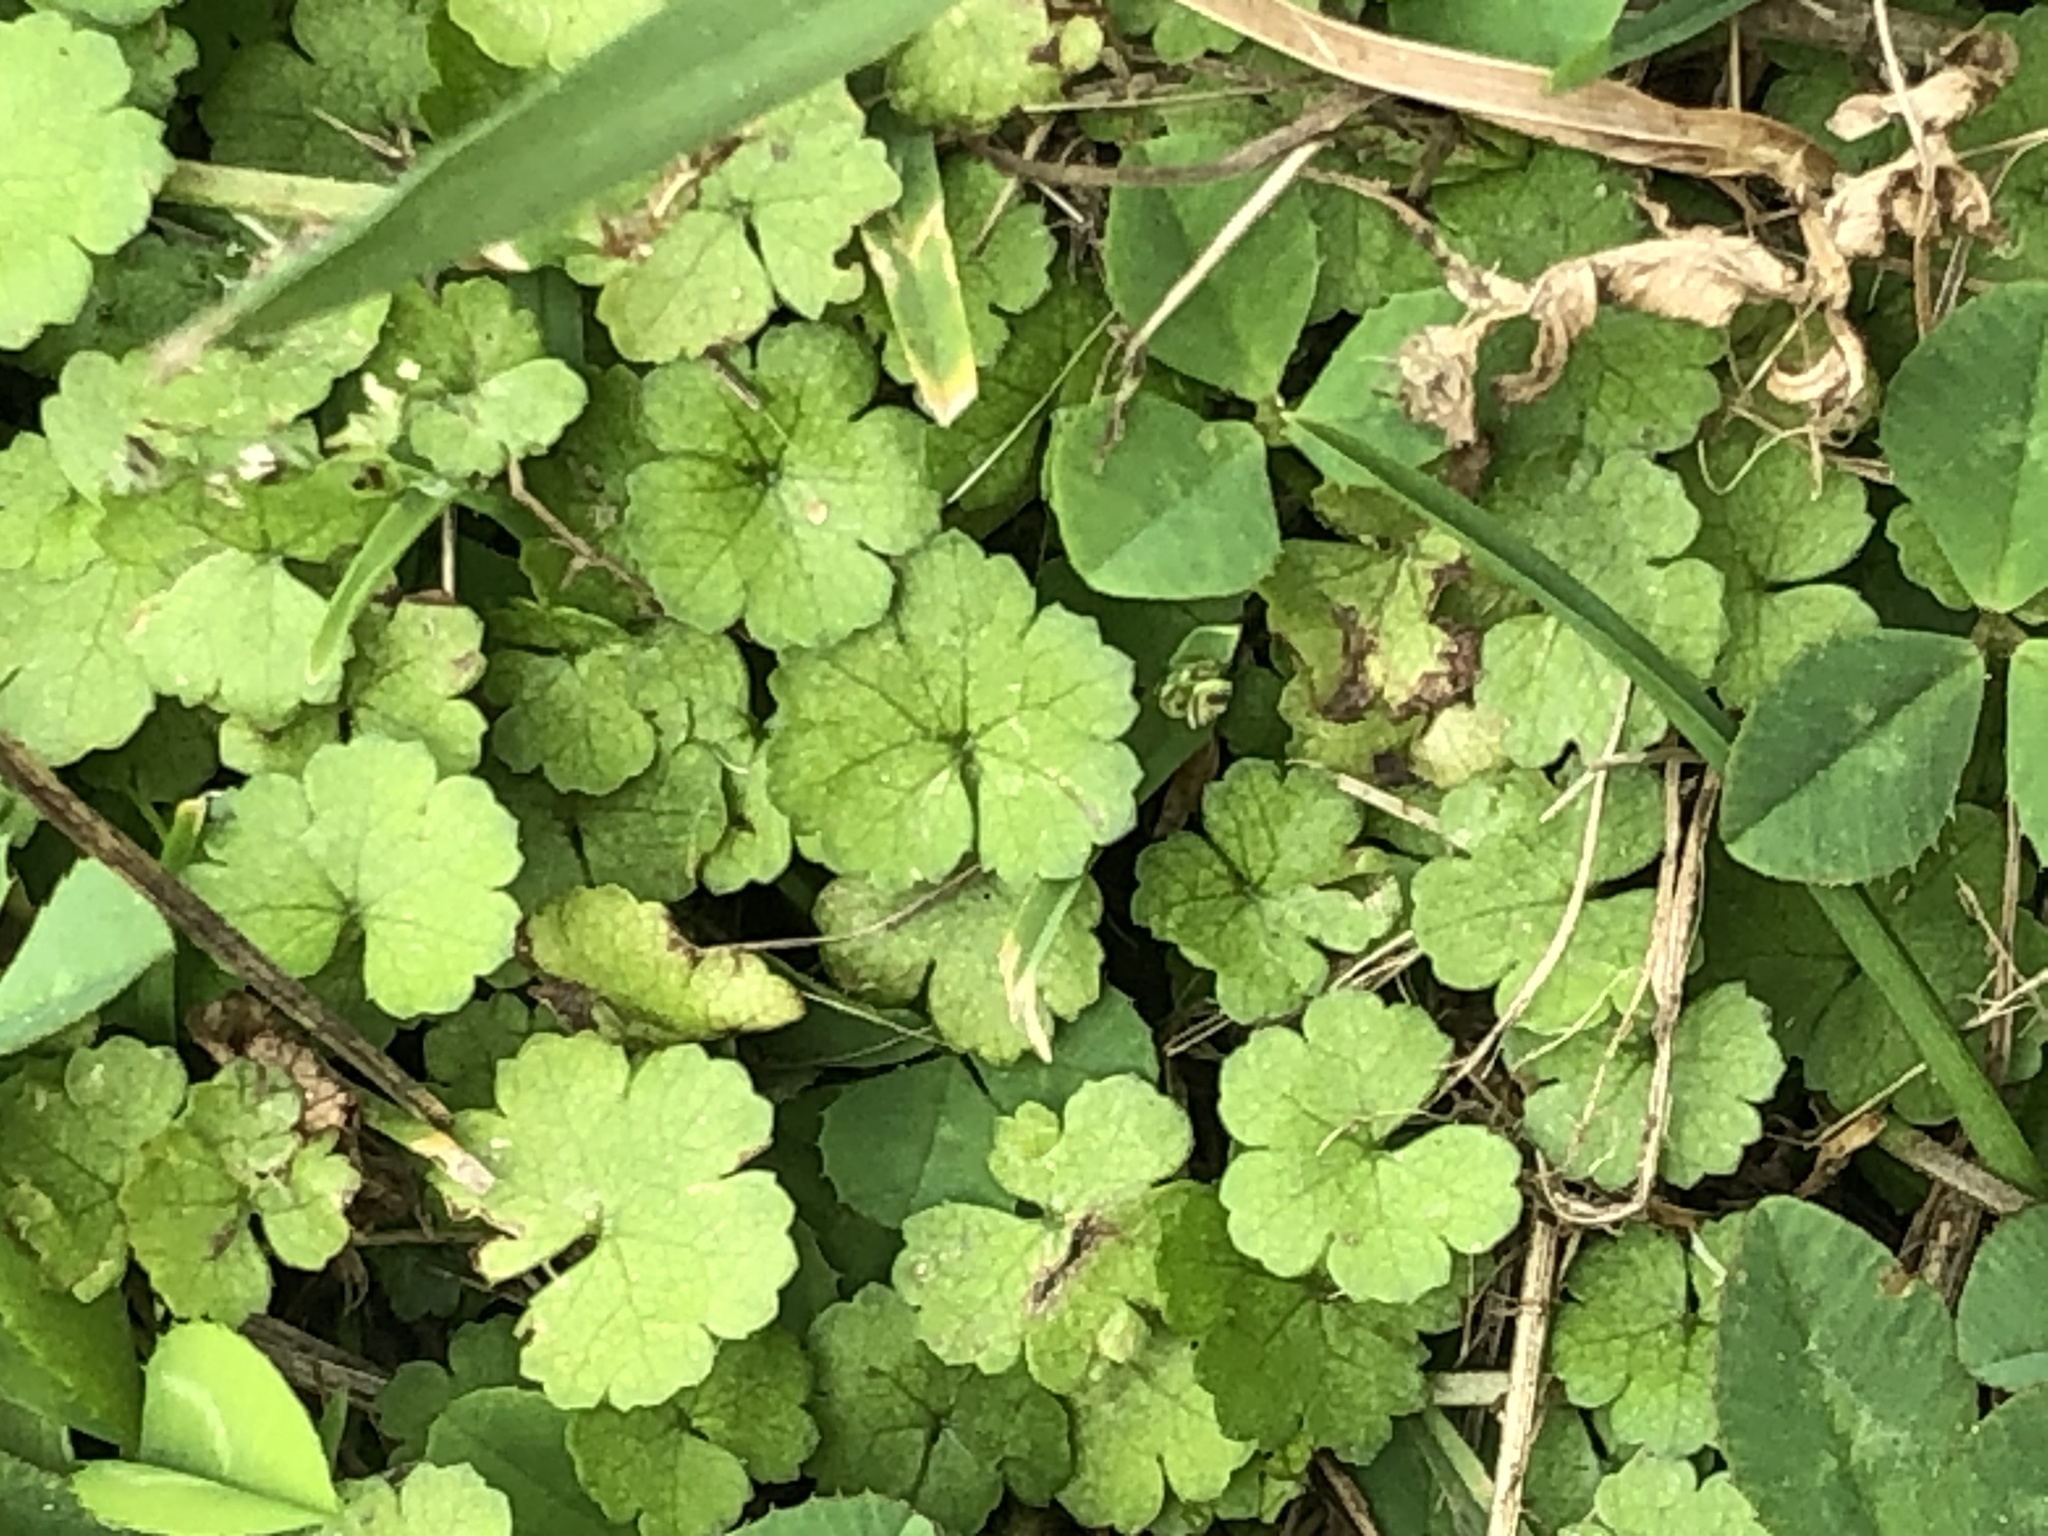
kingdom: Plantae
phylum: Tracheophyta
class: Magnoliopsida
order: Apiales
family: Araliaceae
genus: Hydrocotyle
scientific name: Hydrocotyle heteromeria
